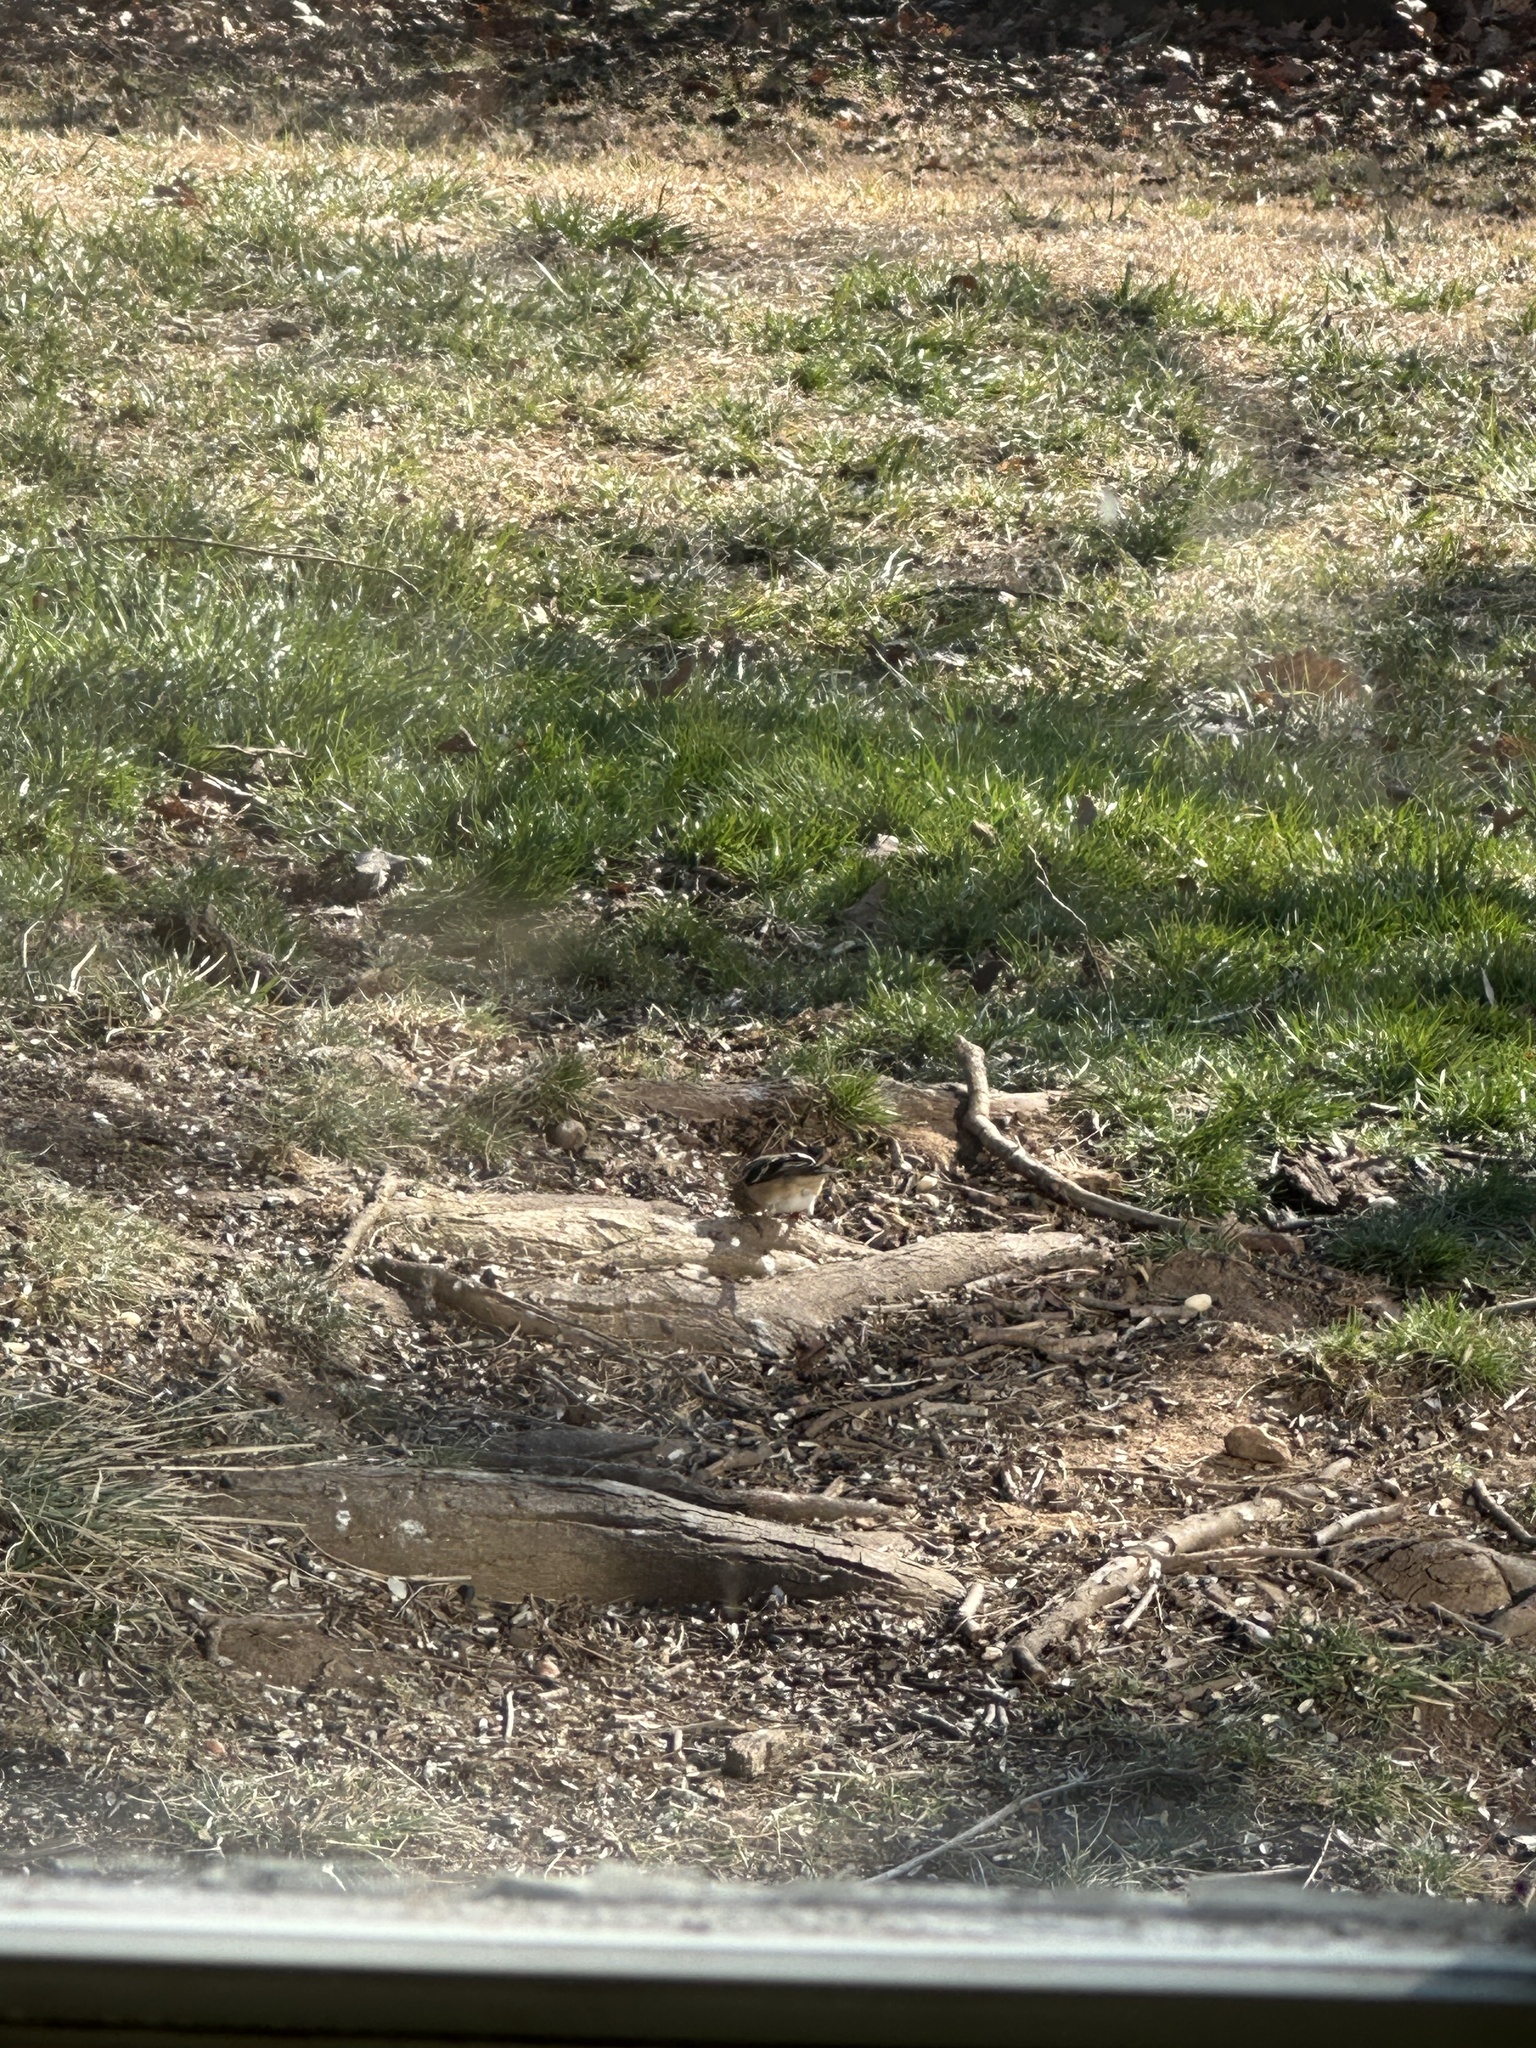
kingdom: Animalia
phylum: Chordata
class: Aves
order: Passeriformes
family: Fringillidae
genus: Spinus
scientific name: Spinus tristis
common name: American goldfinch
